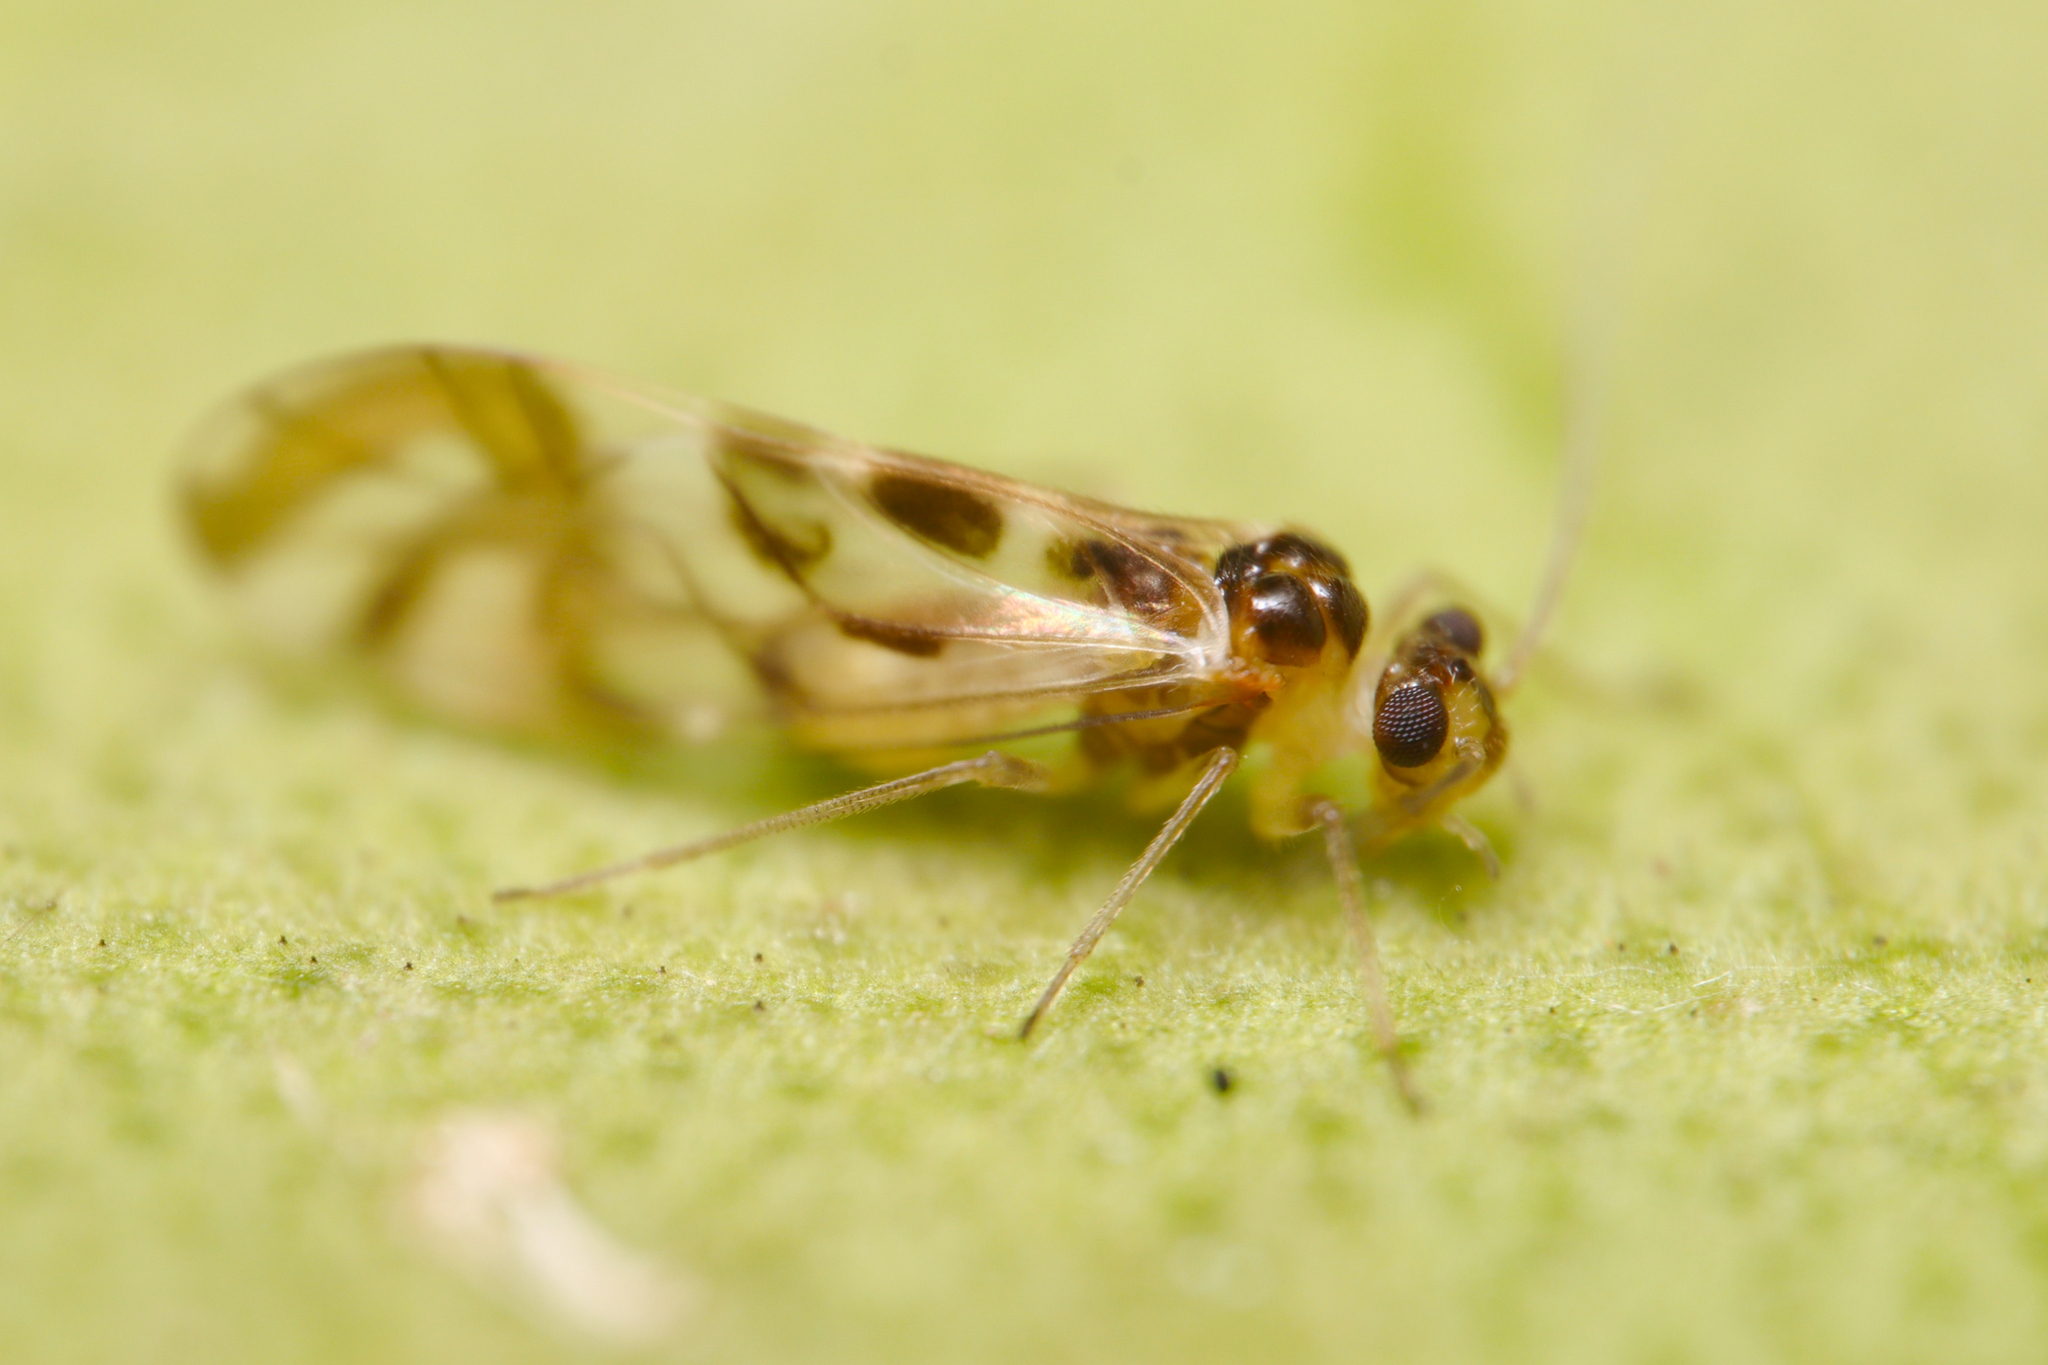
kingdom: Animalia
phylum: Arthropoda
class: Insecta
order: Psocodea
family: Stenopsocidae
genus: Graphopsocus
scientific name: Graphopsocus cruciatus
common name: Lizard bark louse
